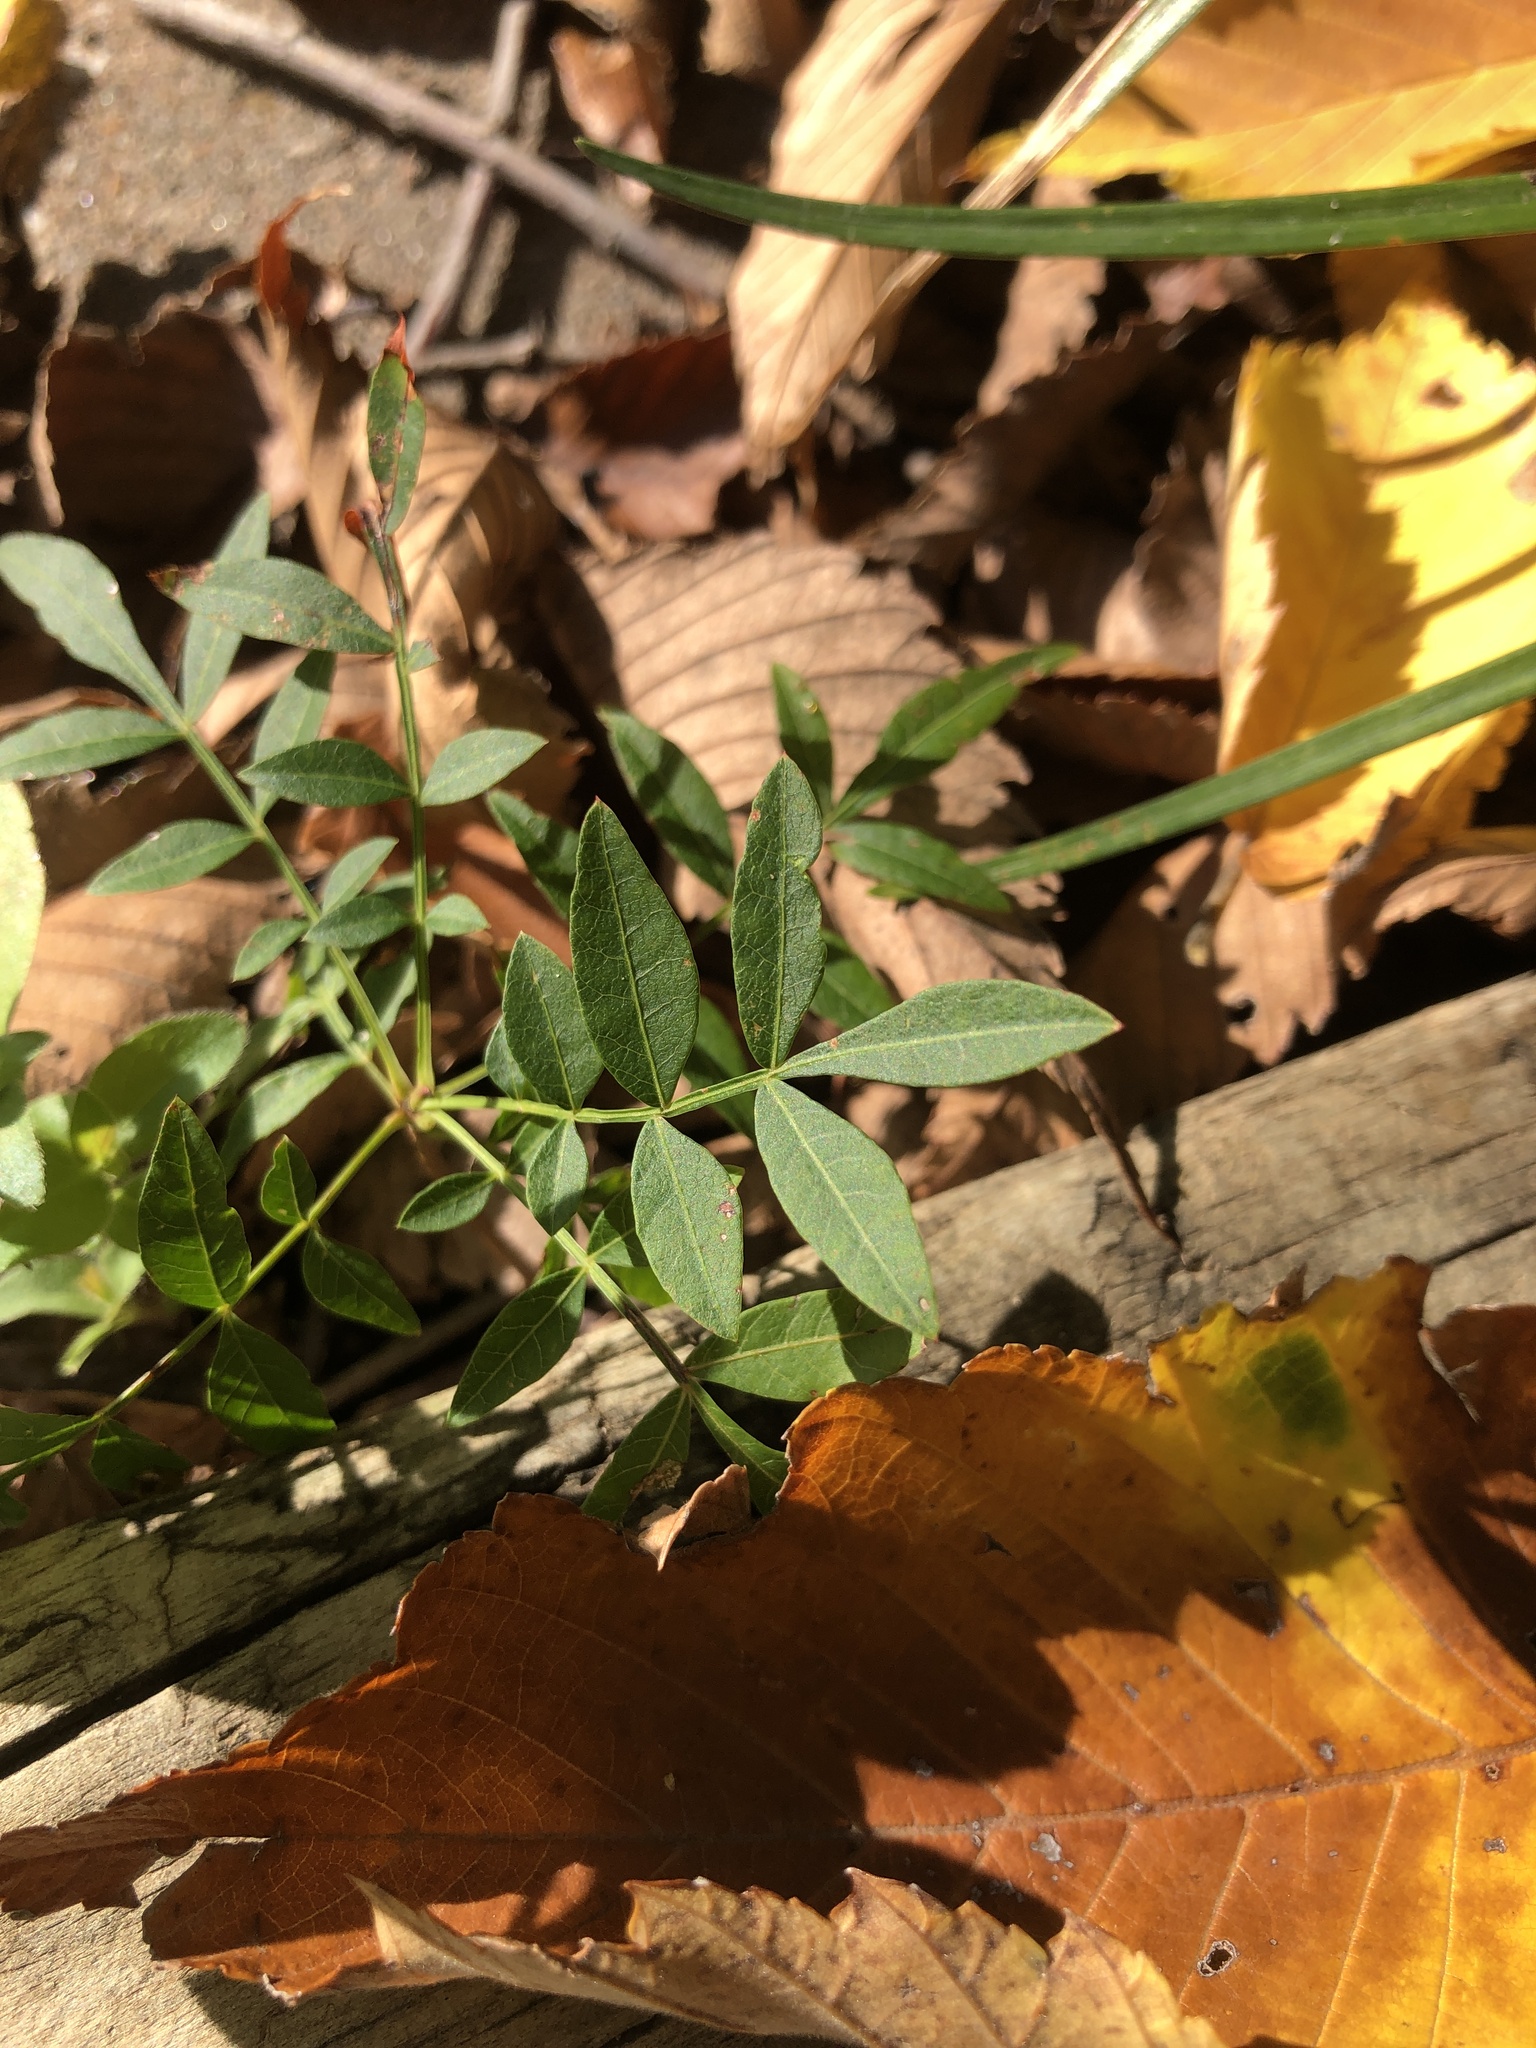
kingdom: Plantae
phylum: Tracheophyta
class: Magnoliopsida
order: Sapindales
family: Sapindaceae
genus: Sapindus
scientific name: Sapindus drummondii
